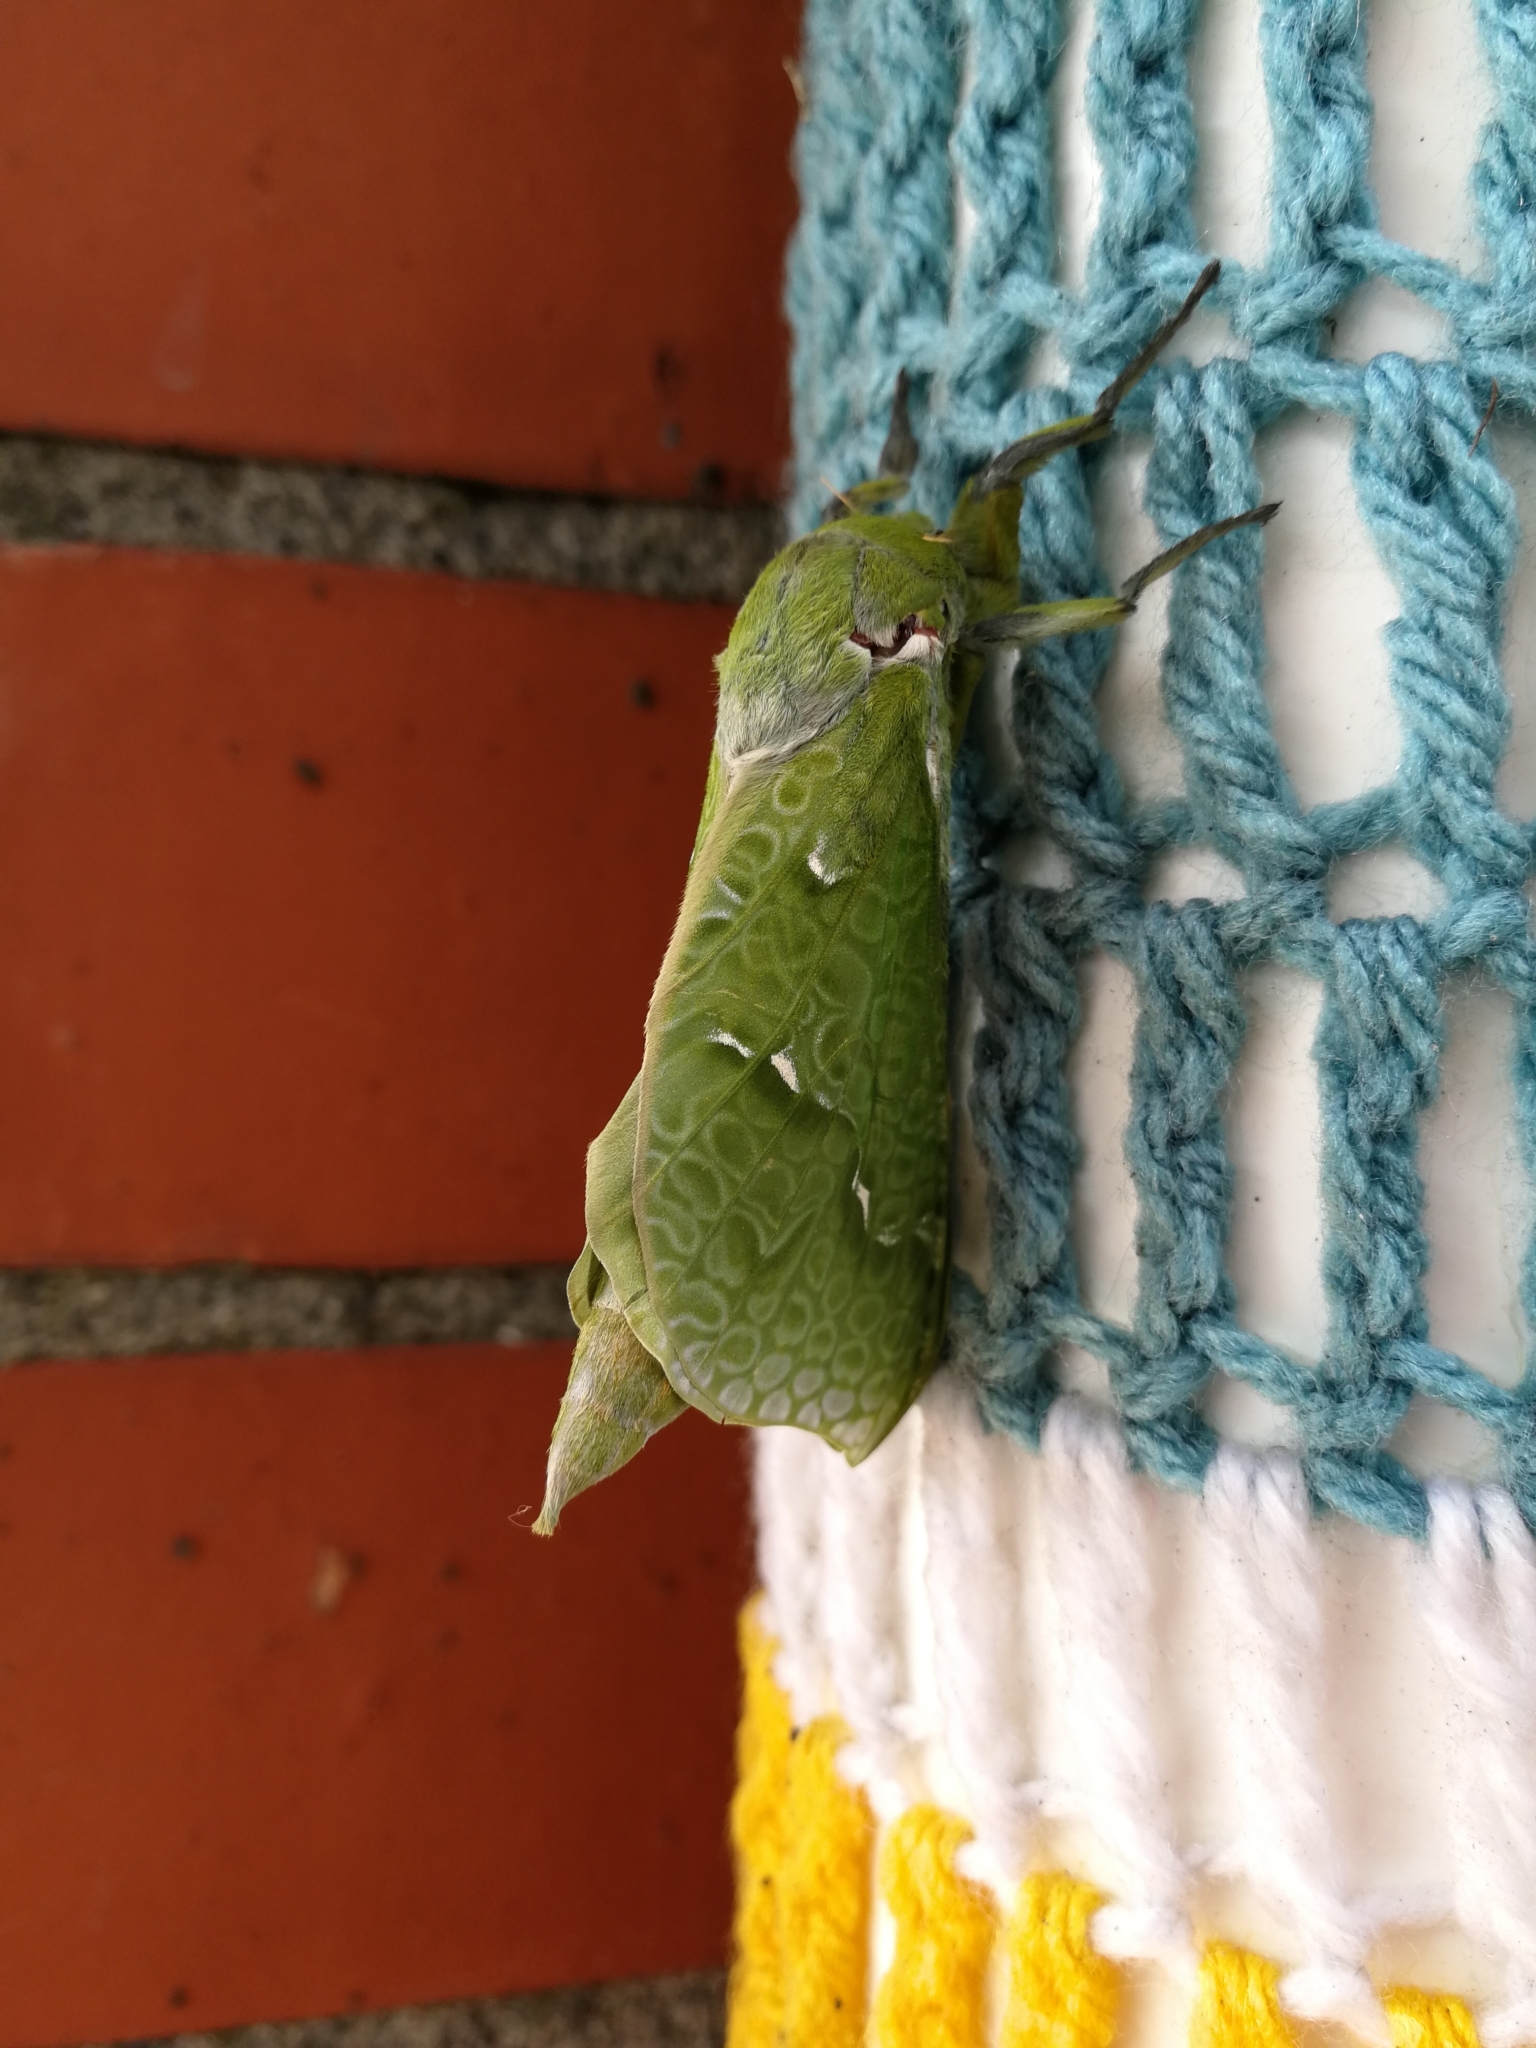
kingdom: Animalia
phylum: Arthropoda
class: Insecta
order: Lepidoptera
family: Hepialidae
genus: Aenetus
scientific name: Aenetus virescens
